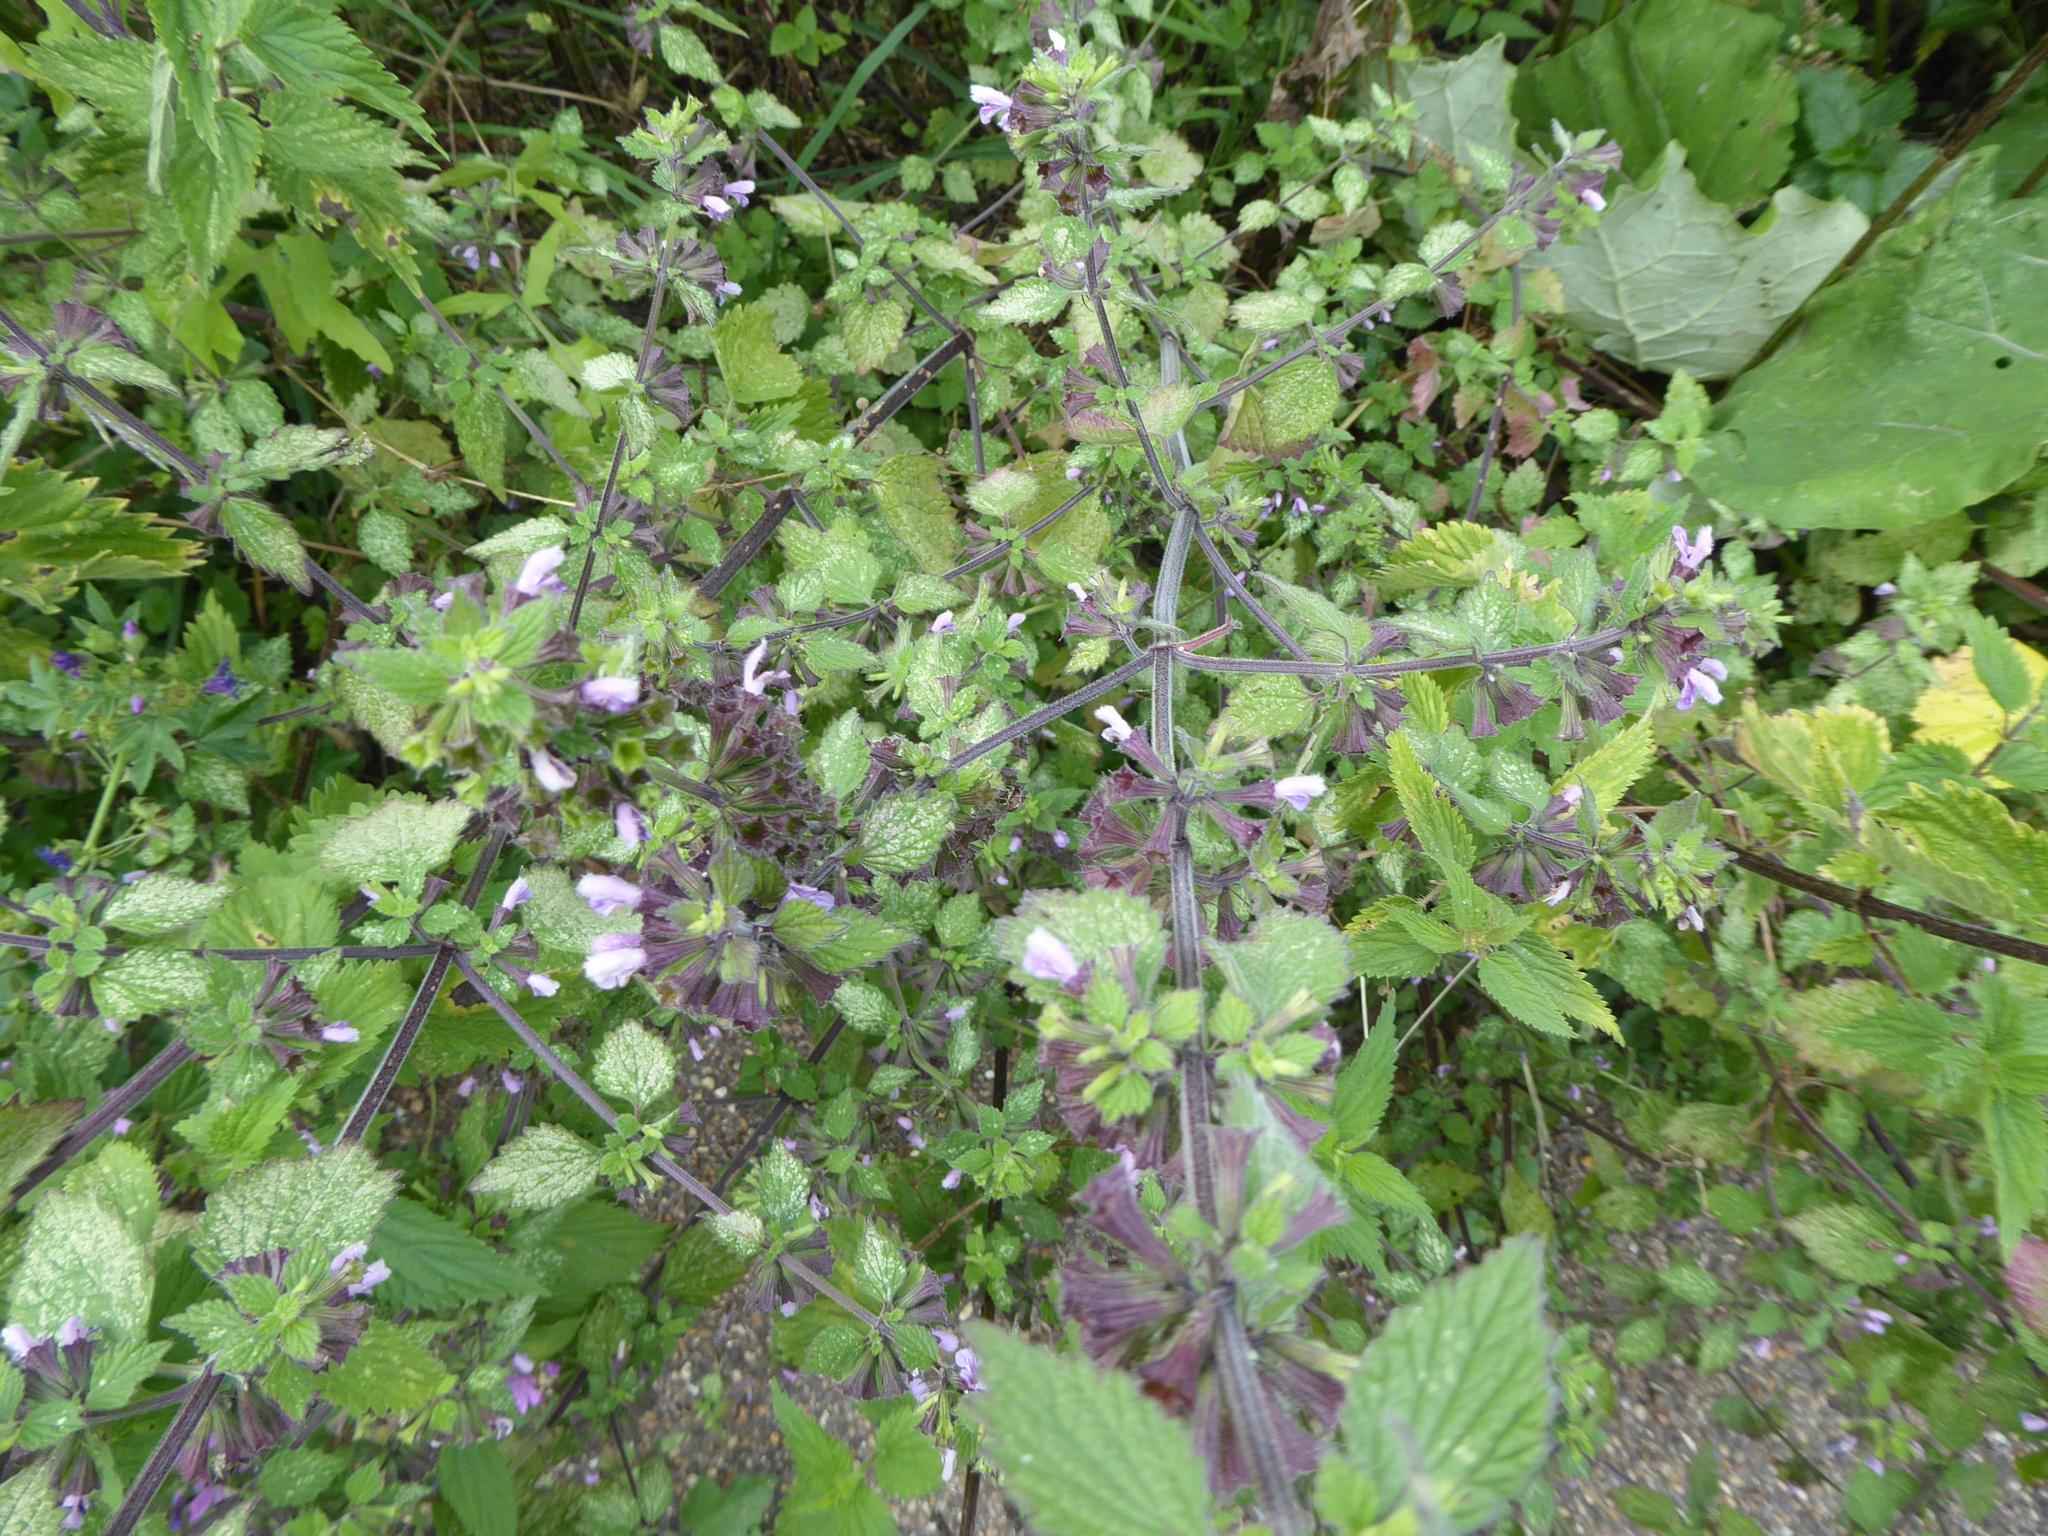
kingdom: Plantae
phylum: Tracheophyta
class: Magnoliopsida
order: Lamiales
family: Lamiaceae
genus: Ballota
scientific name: Ballota nigra
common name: Black horehound
